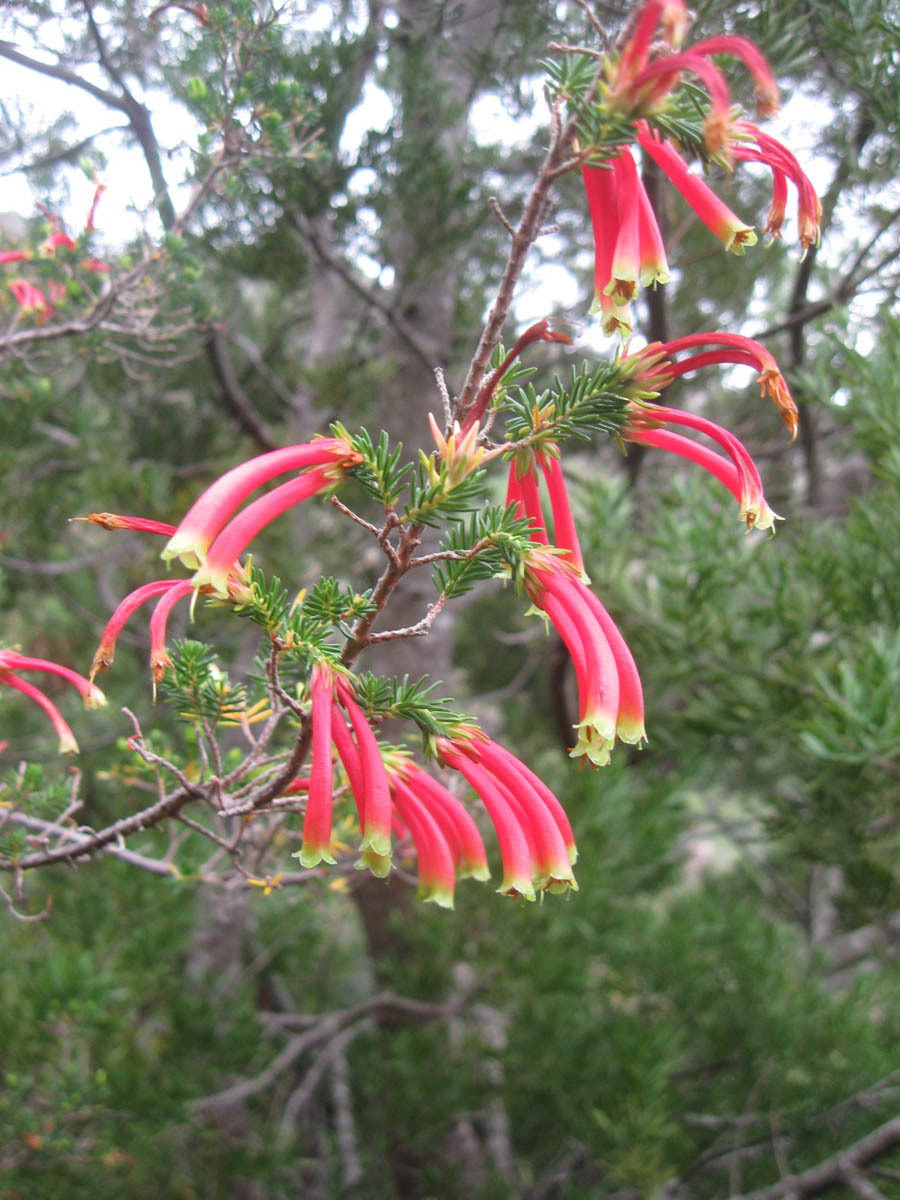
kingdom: Plantae
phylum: Tracheophyta
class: Magnoliopsida
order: Ericales
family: Ericaceae
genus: Erica
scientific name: Erica versicolor
